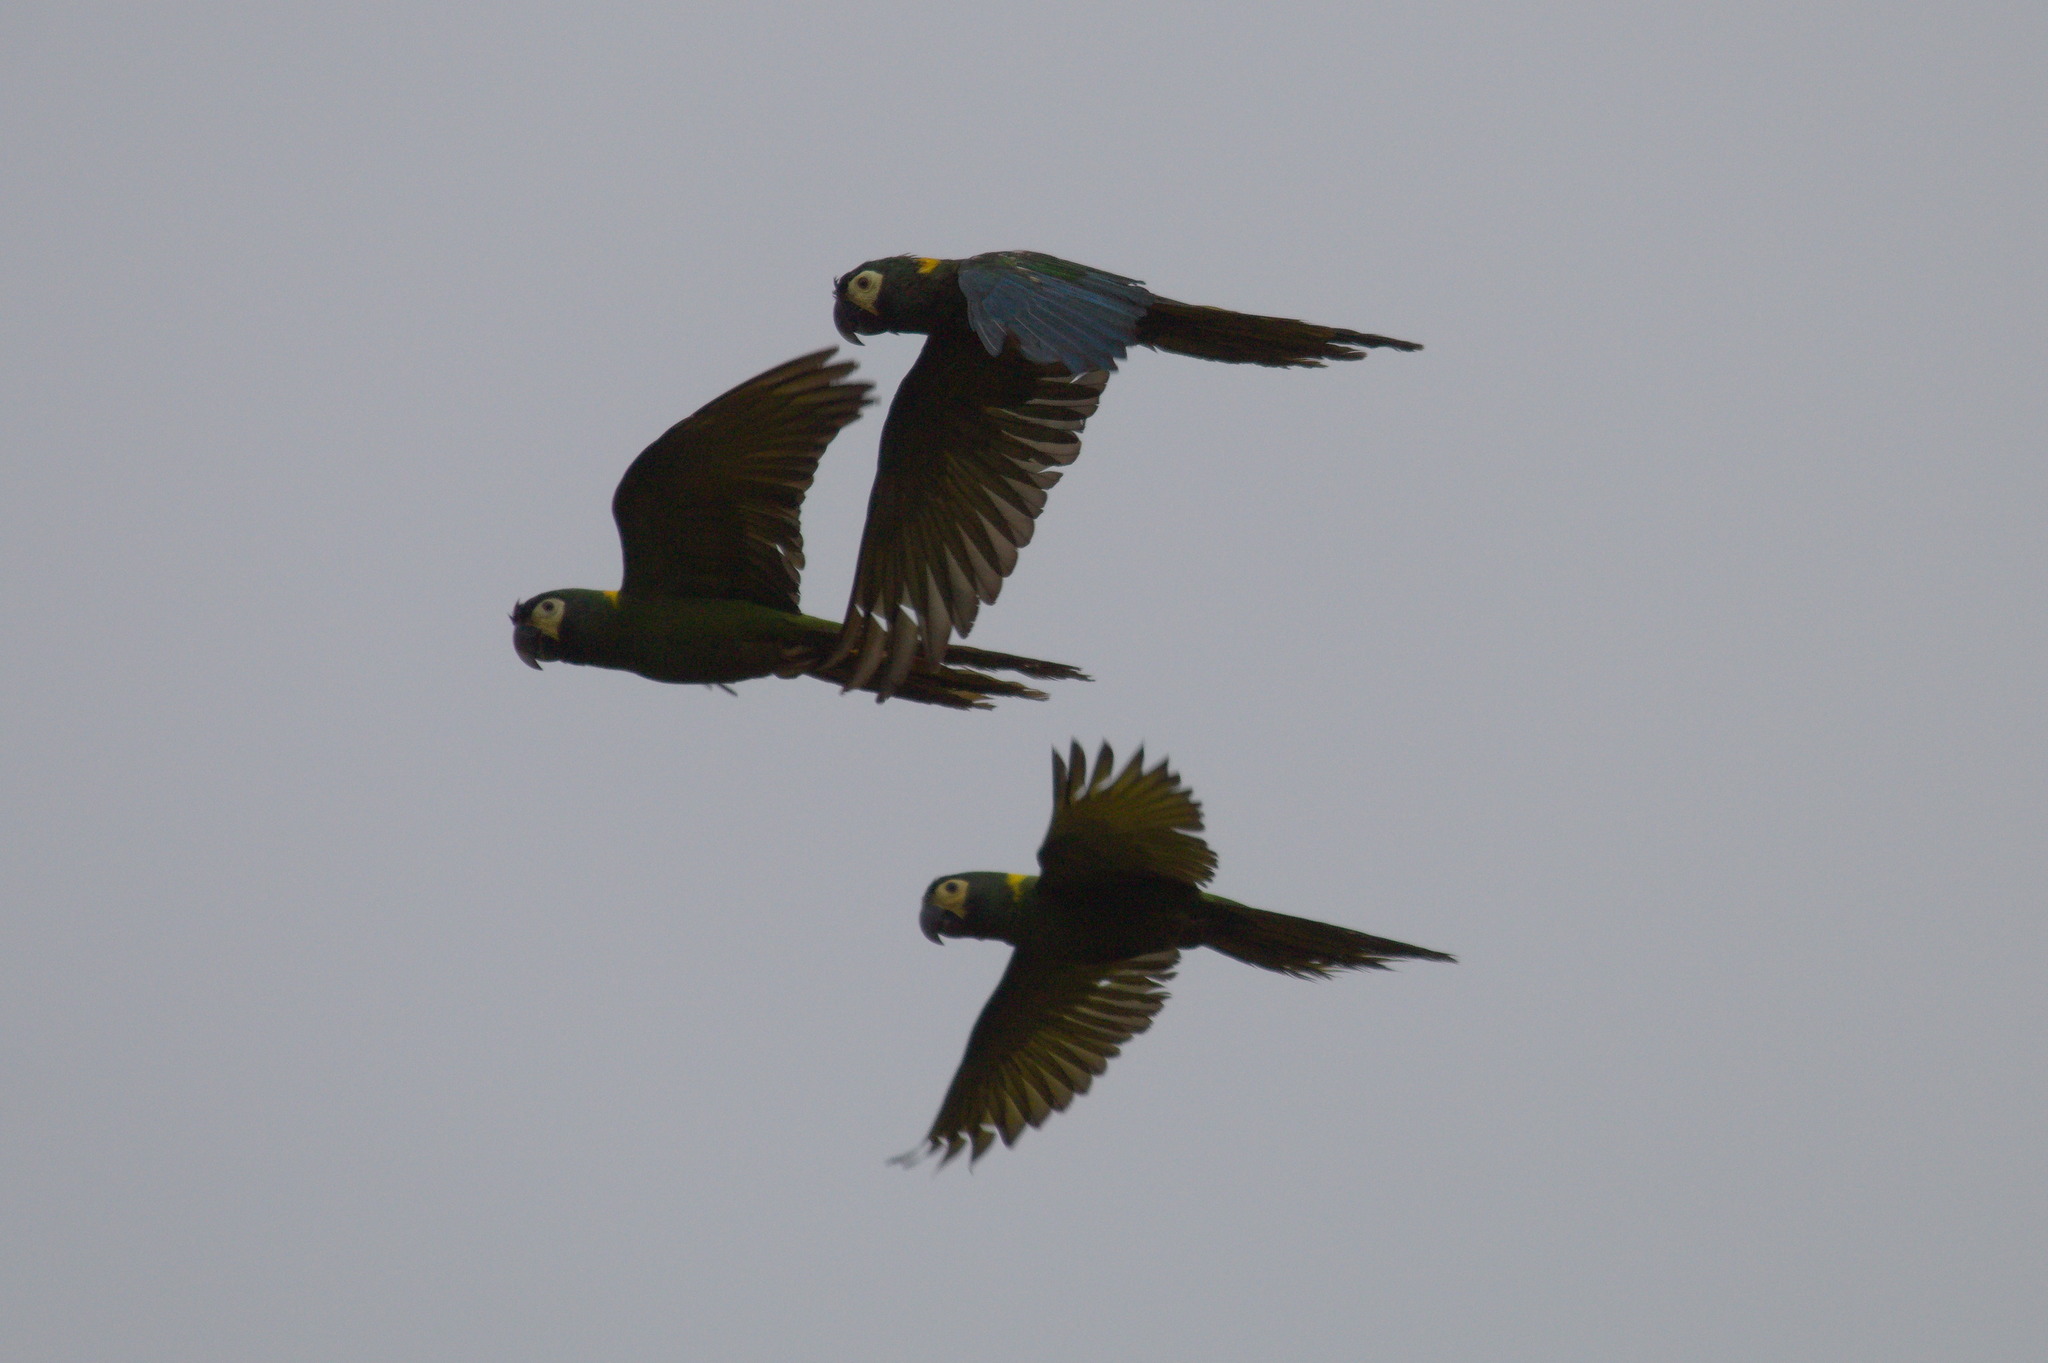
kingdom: Animalia
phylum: Chordata
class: Aves
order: Psittaciformes
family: Psittacidae
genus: Primolius
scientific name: Primolius auricollis
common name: Golden-collared macaw
